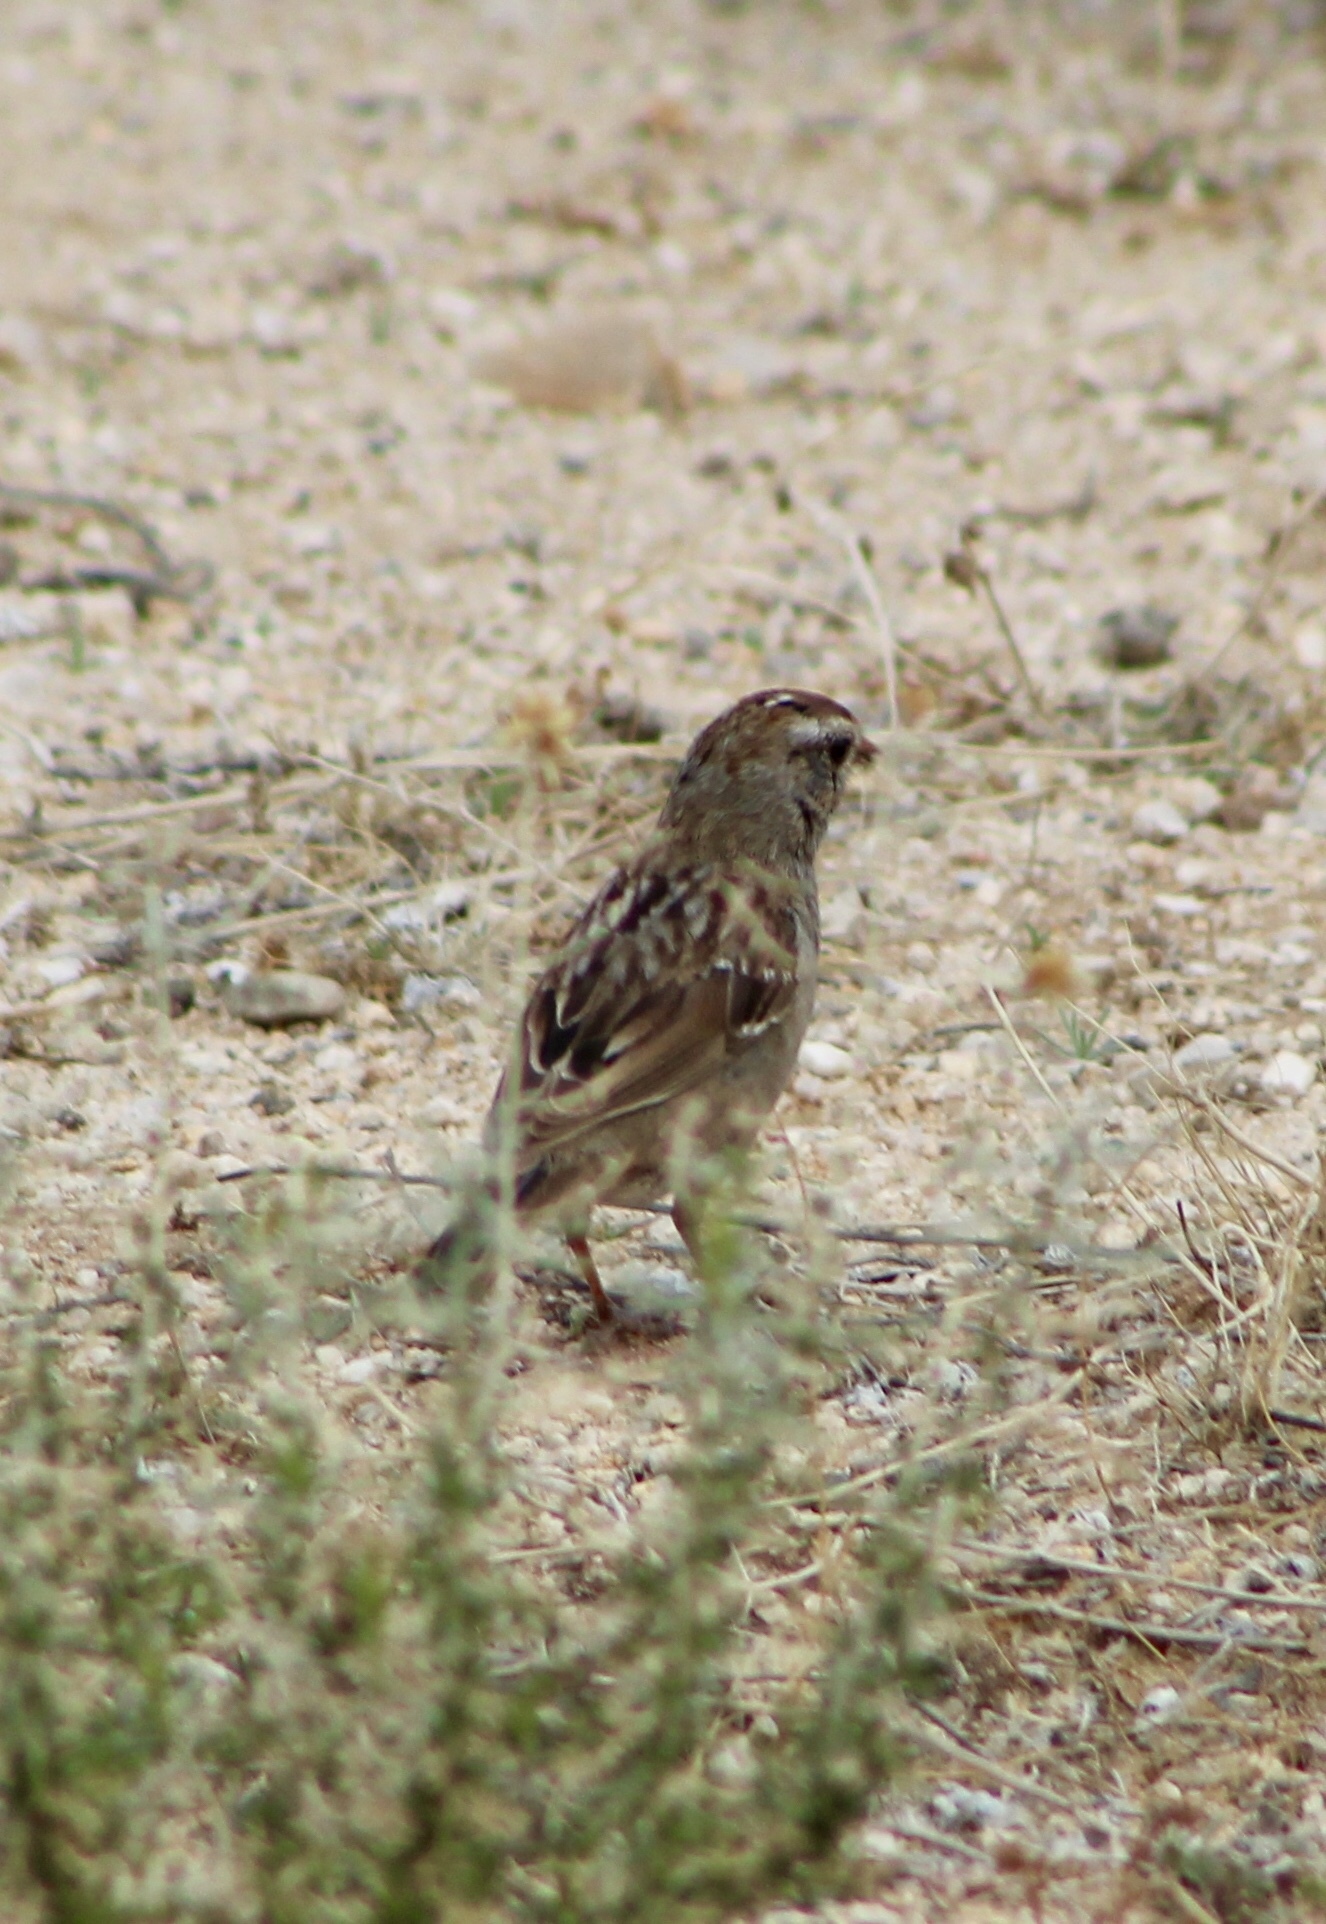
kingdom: Animalia
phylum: Chordata
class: Aves
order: Passeriformes
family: Passerellidae
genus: Zonotrichia
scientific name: Zonotrichia leucophrys
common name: White-crowned sparrow
